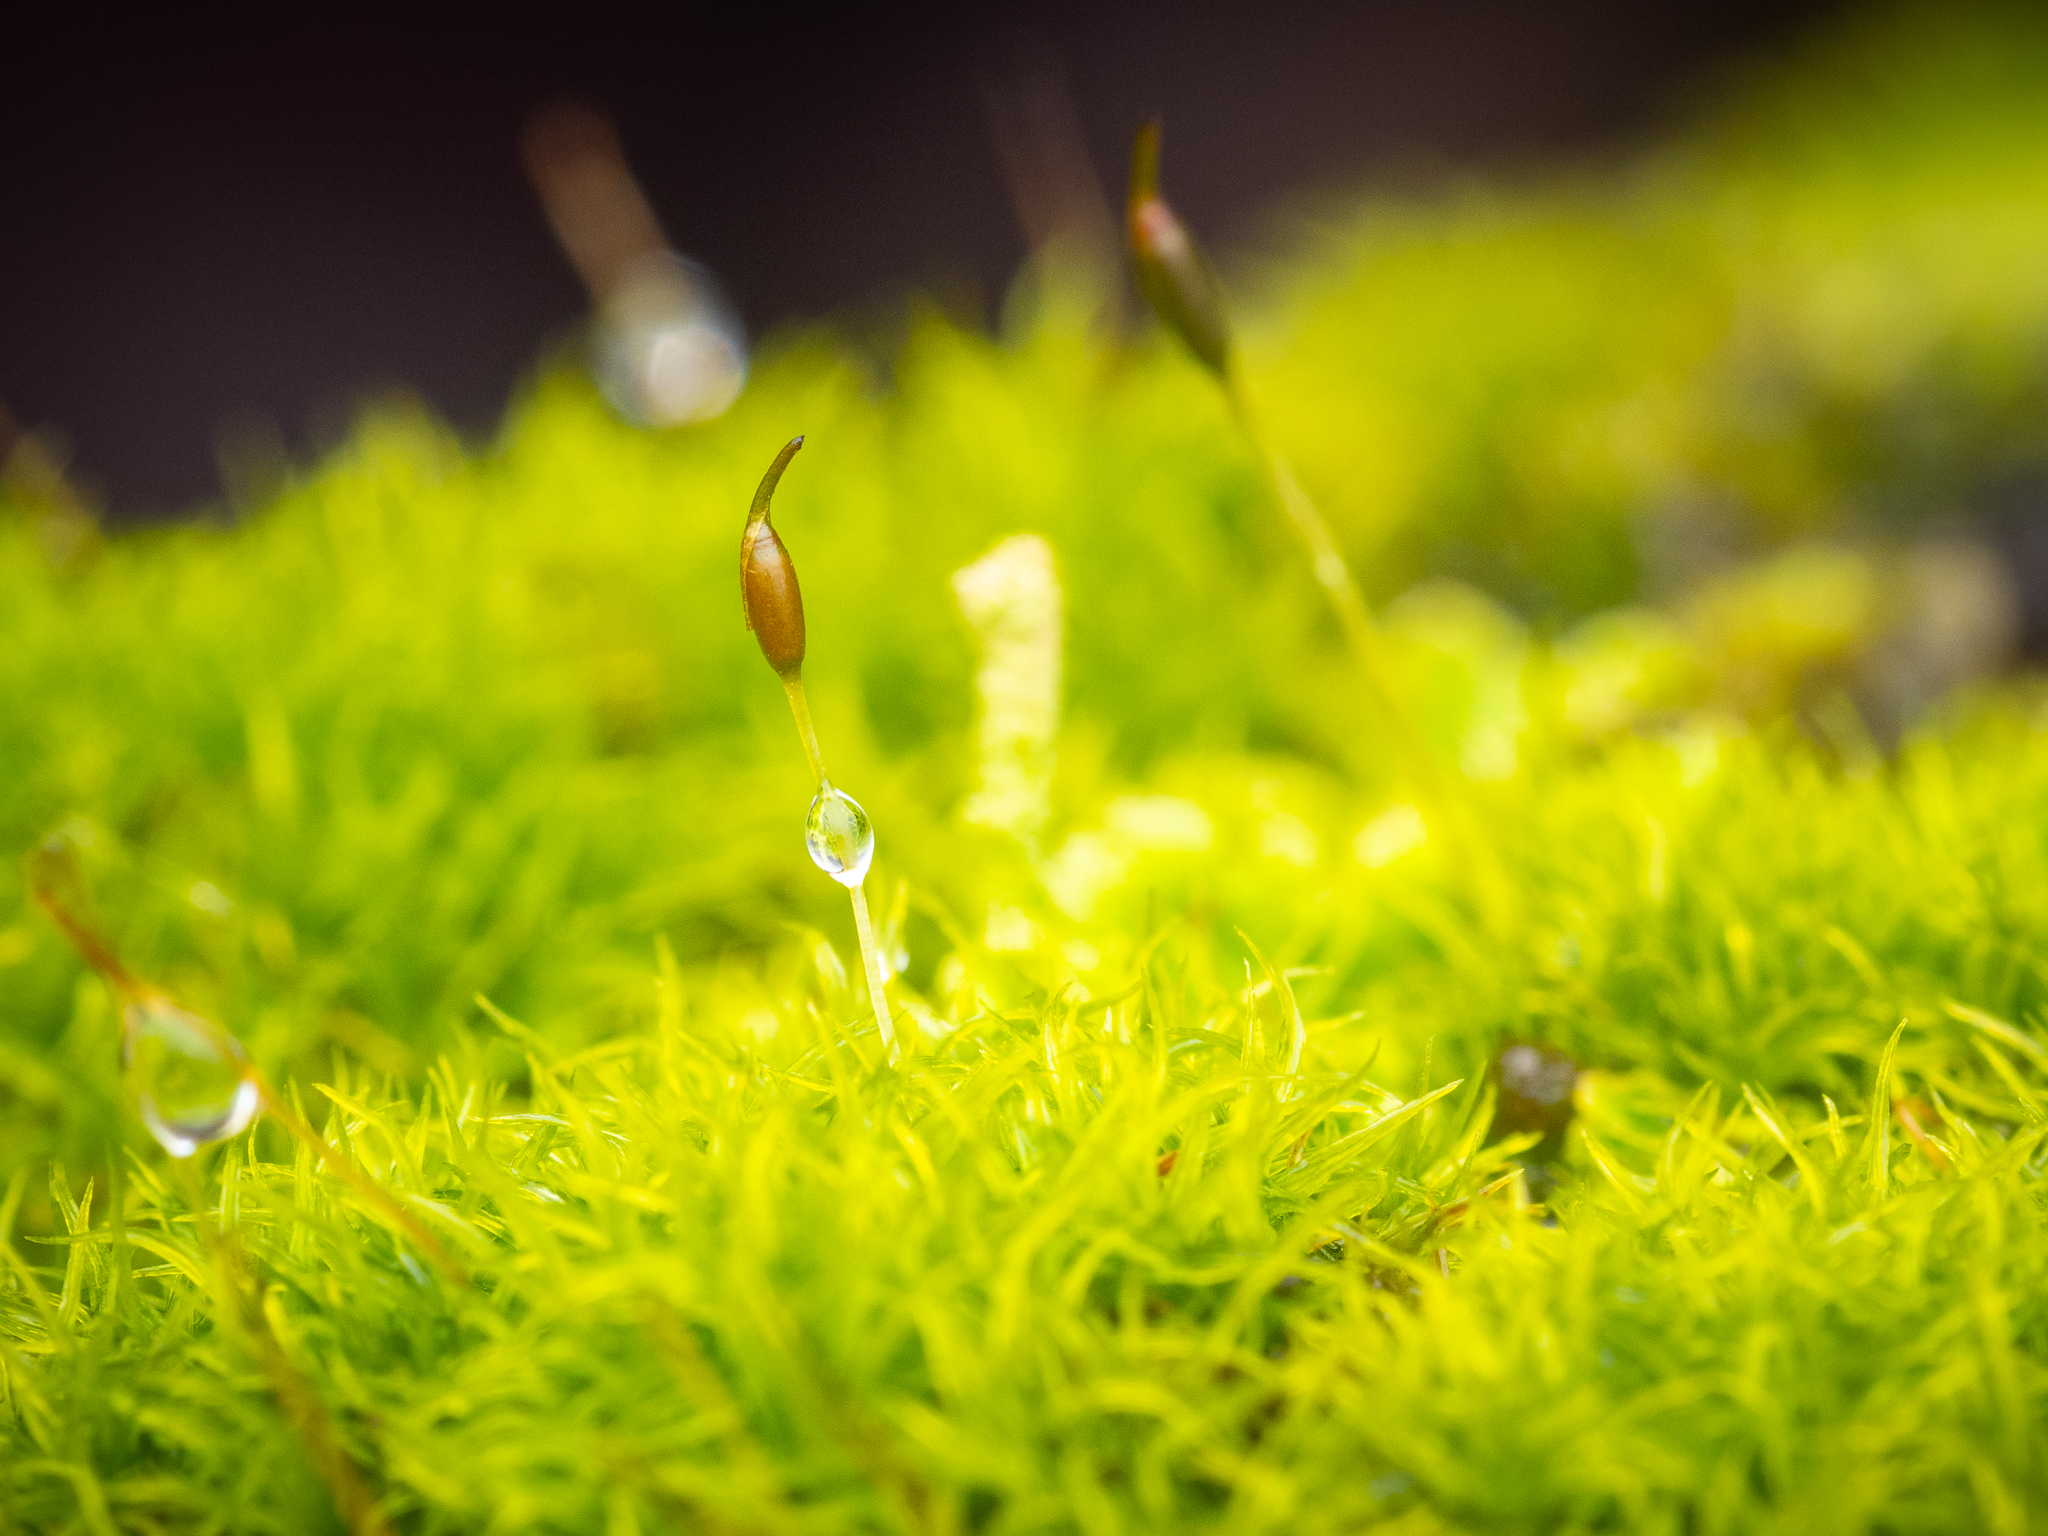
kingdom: Plantae
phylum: Bryophyta
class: Bryopsida
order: Dicranales
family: Rhabdoweisiaceae
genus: Dicranoweisia
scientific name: Dicranoweisia cirrata
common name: Common pincushion
